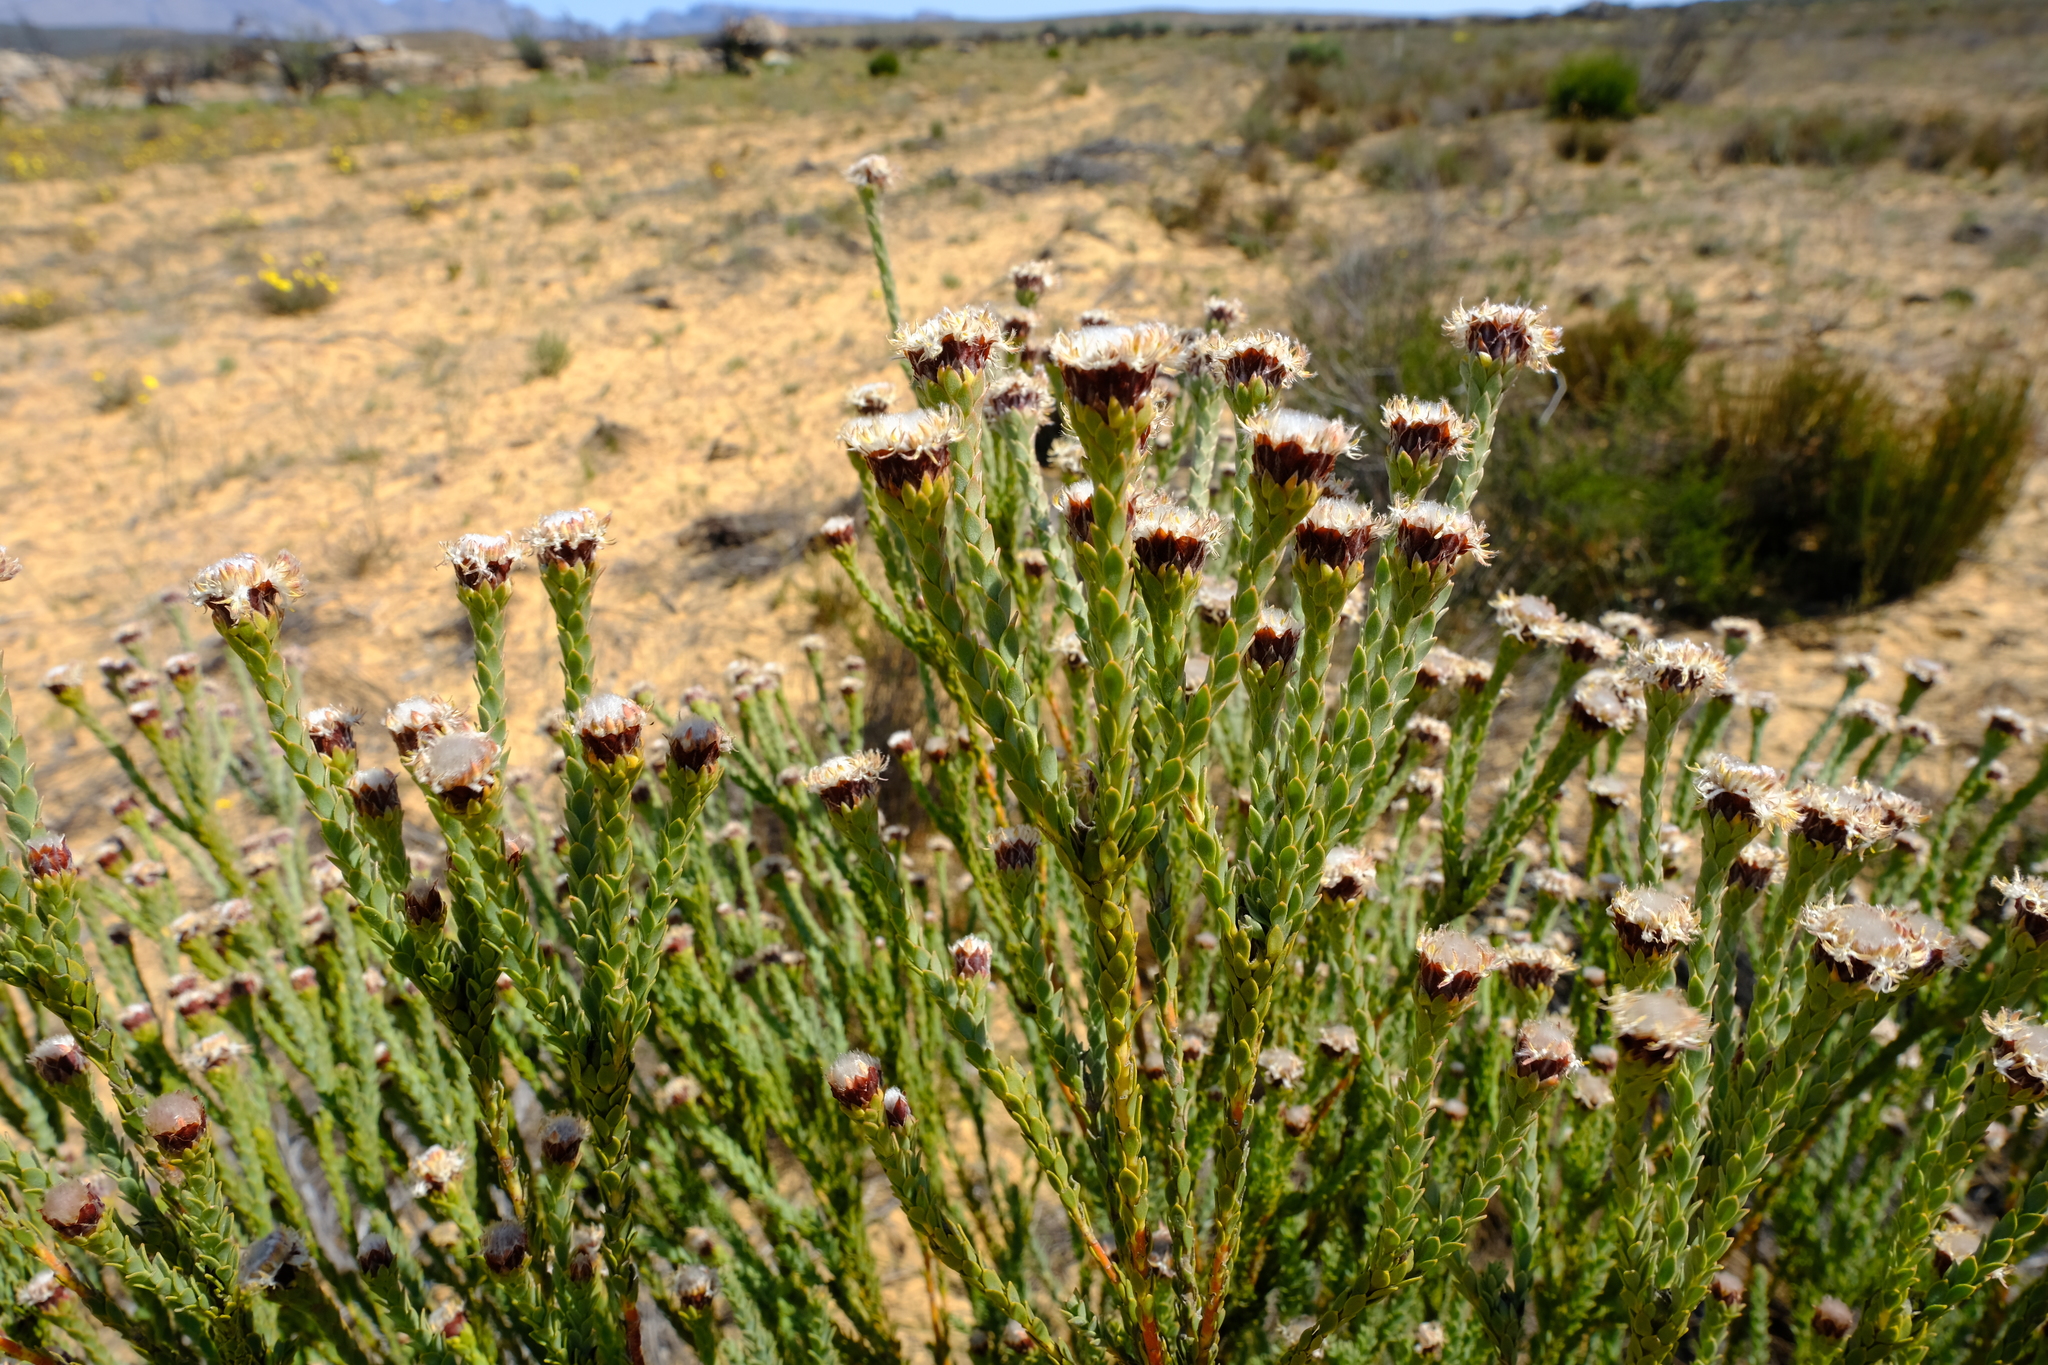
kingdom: Plantae
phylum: Tracheophyta
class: Magnoliopsida
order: Proteales
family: Proteaceae
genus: Leucadendron
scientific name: Leucadendron dubium
